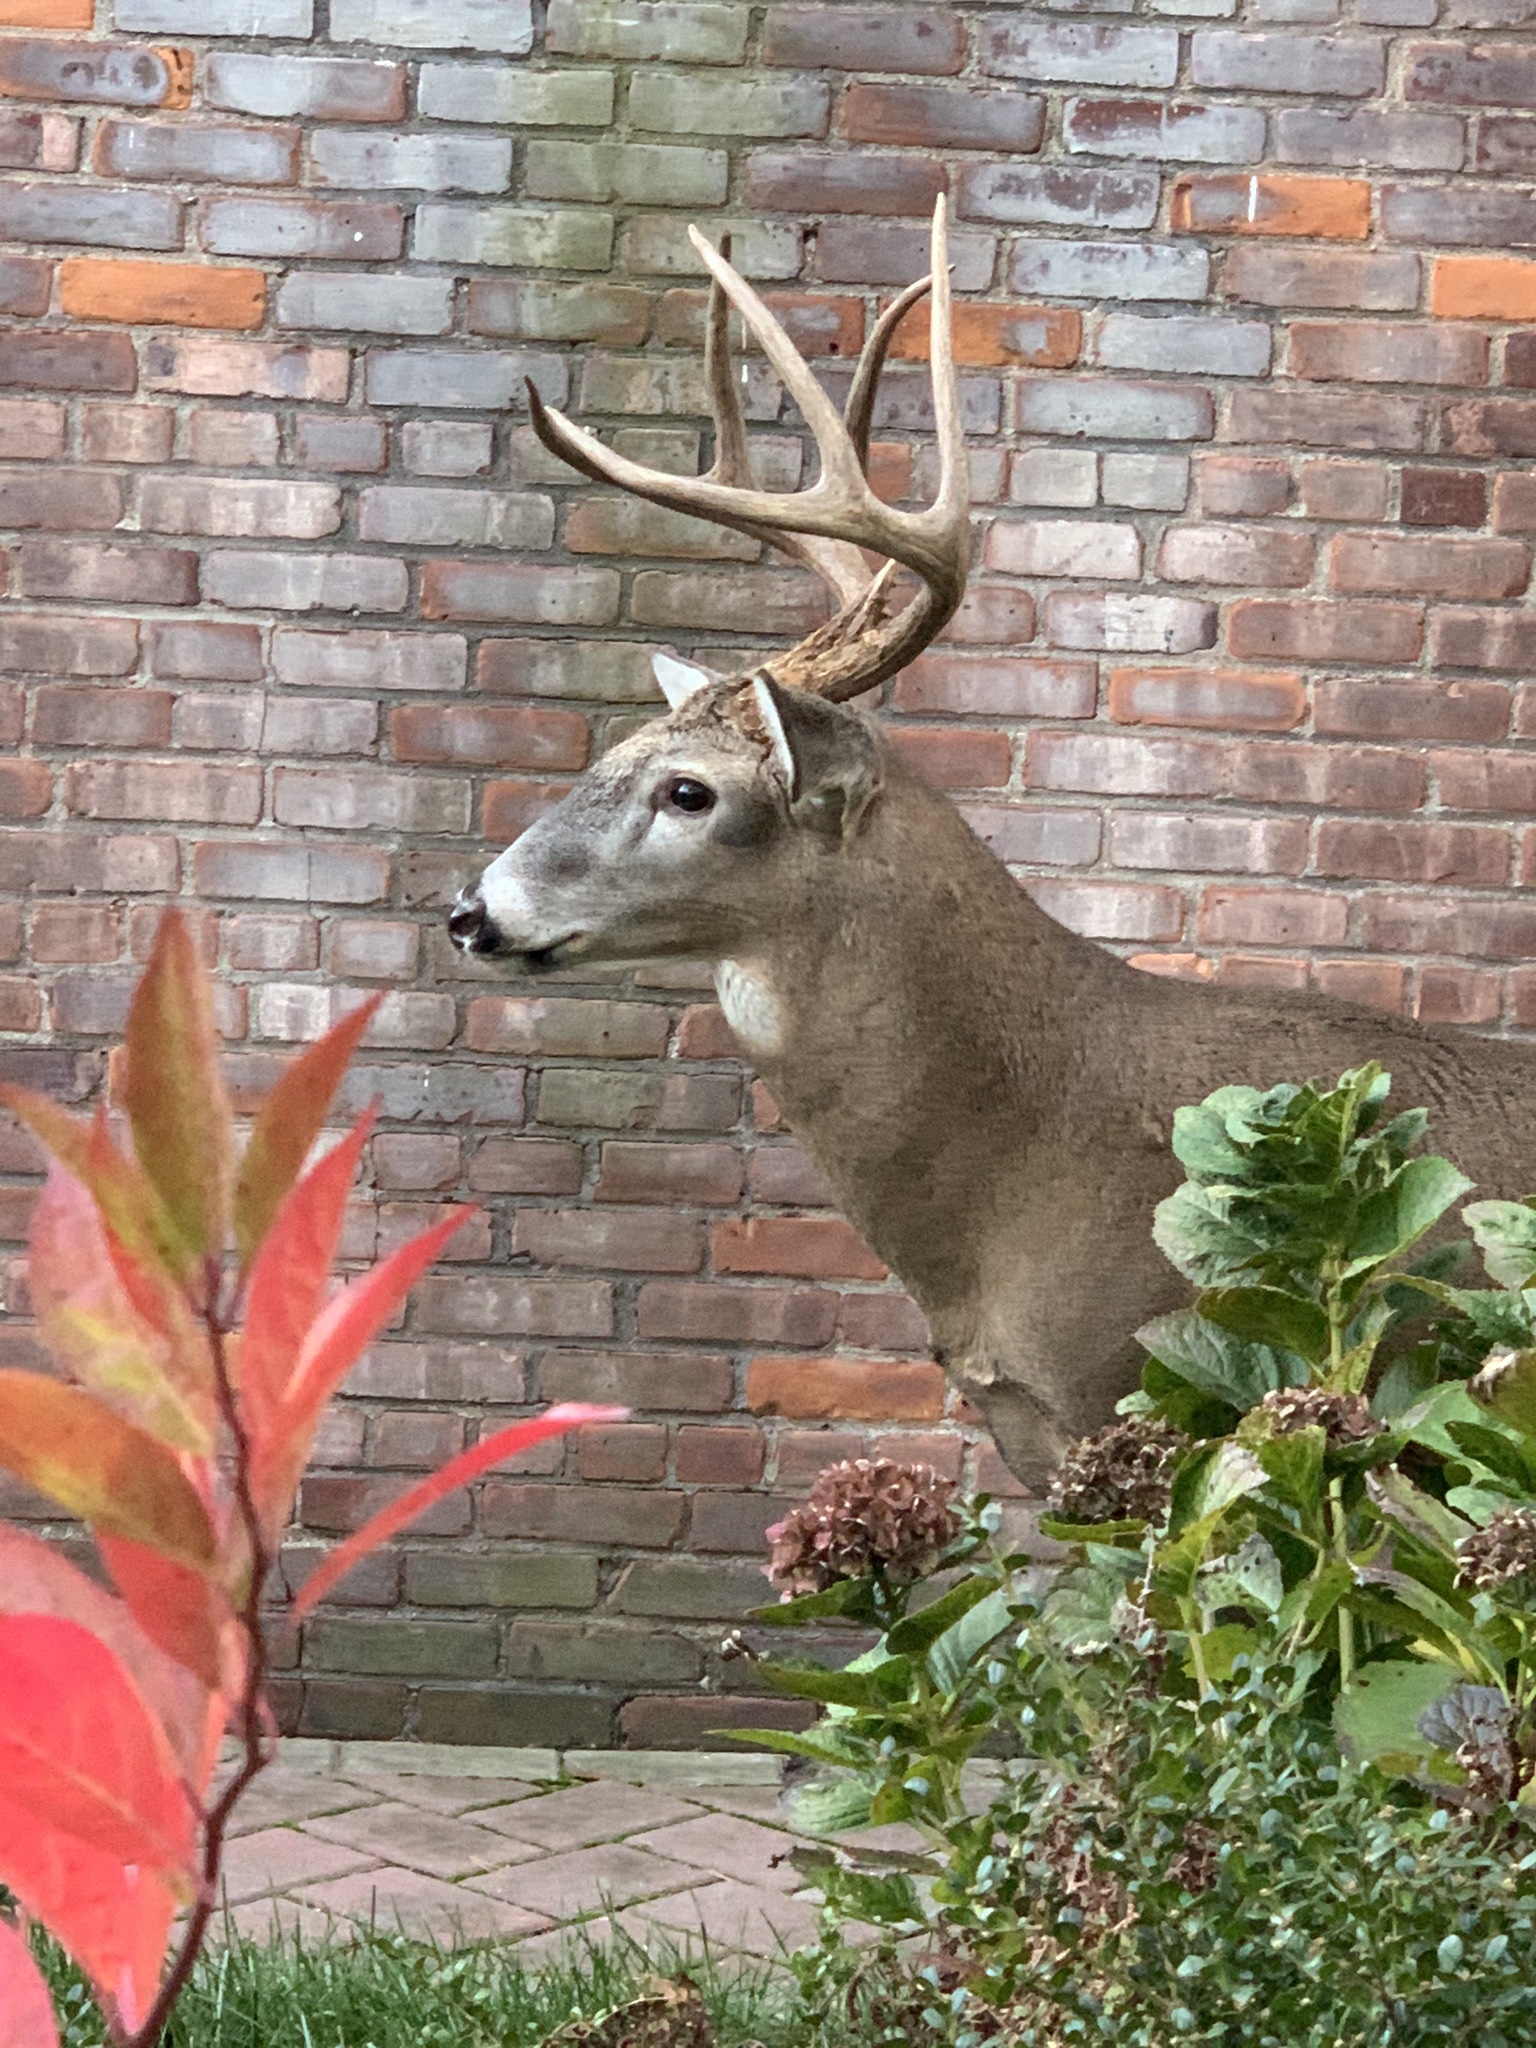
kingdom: Animalia
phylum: Chordata
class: Mammalia
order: Artiodactyla
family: Cervidae
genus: Odocoileus
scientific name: Odocoileus virginianus
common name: White-tailed deer
